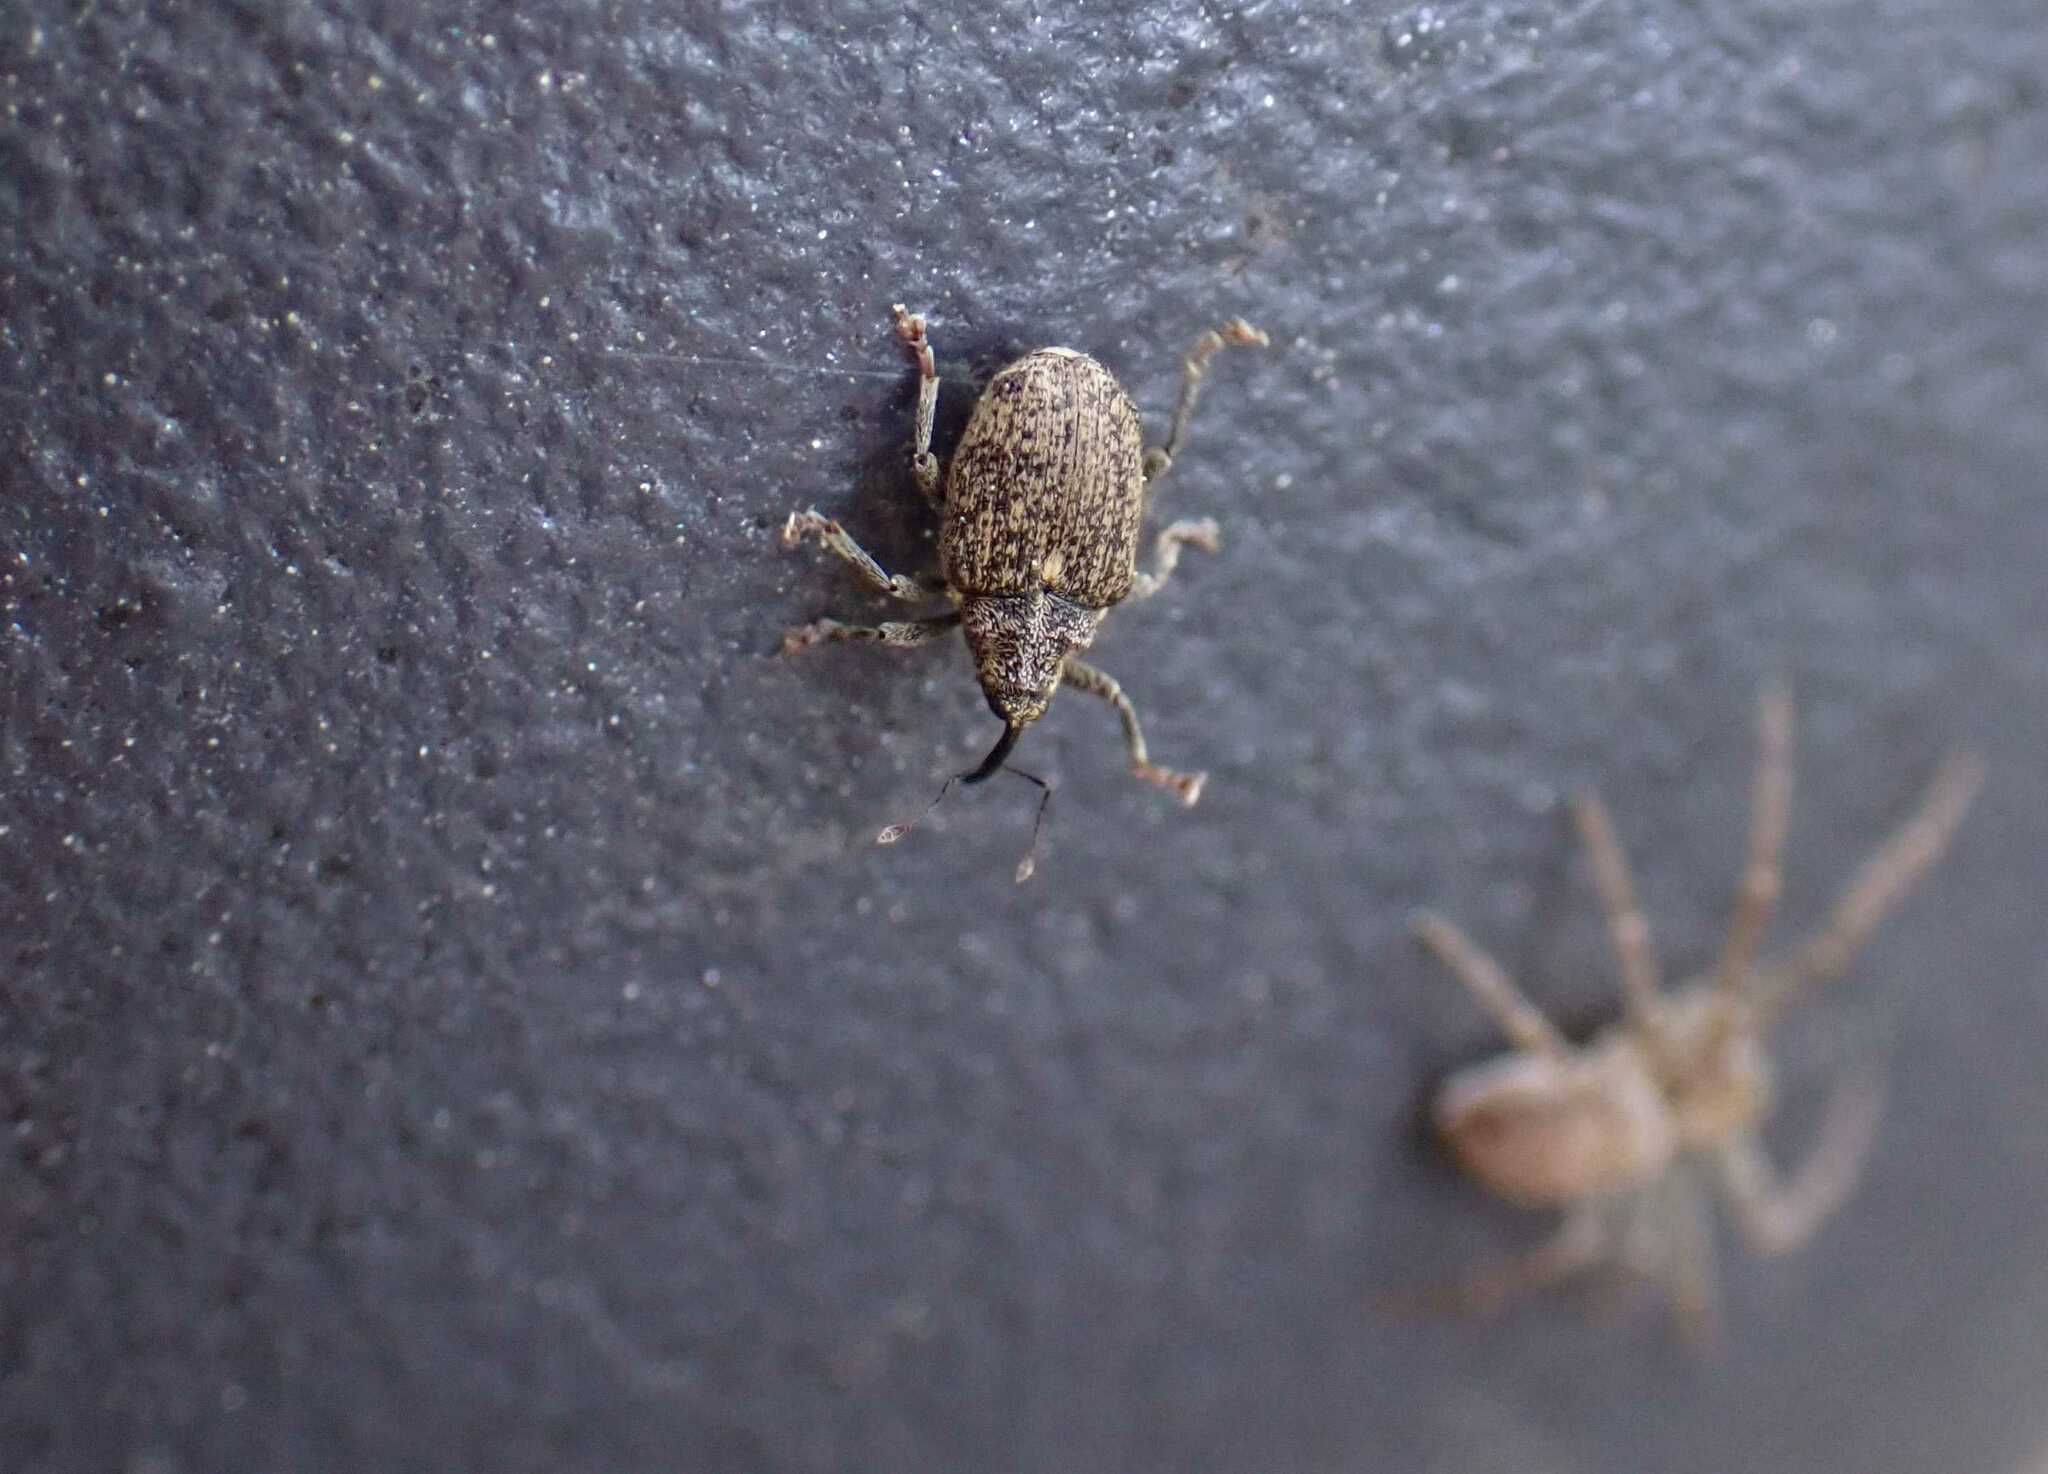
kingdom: Animalia
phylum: Arthropoda
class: Insecta
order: Coleoptera
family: Curculionidae
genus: Ceutorhynchus
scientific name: Ceutorhynchus pallidactylus
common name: Cabbage stem weavil
